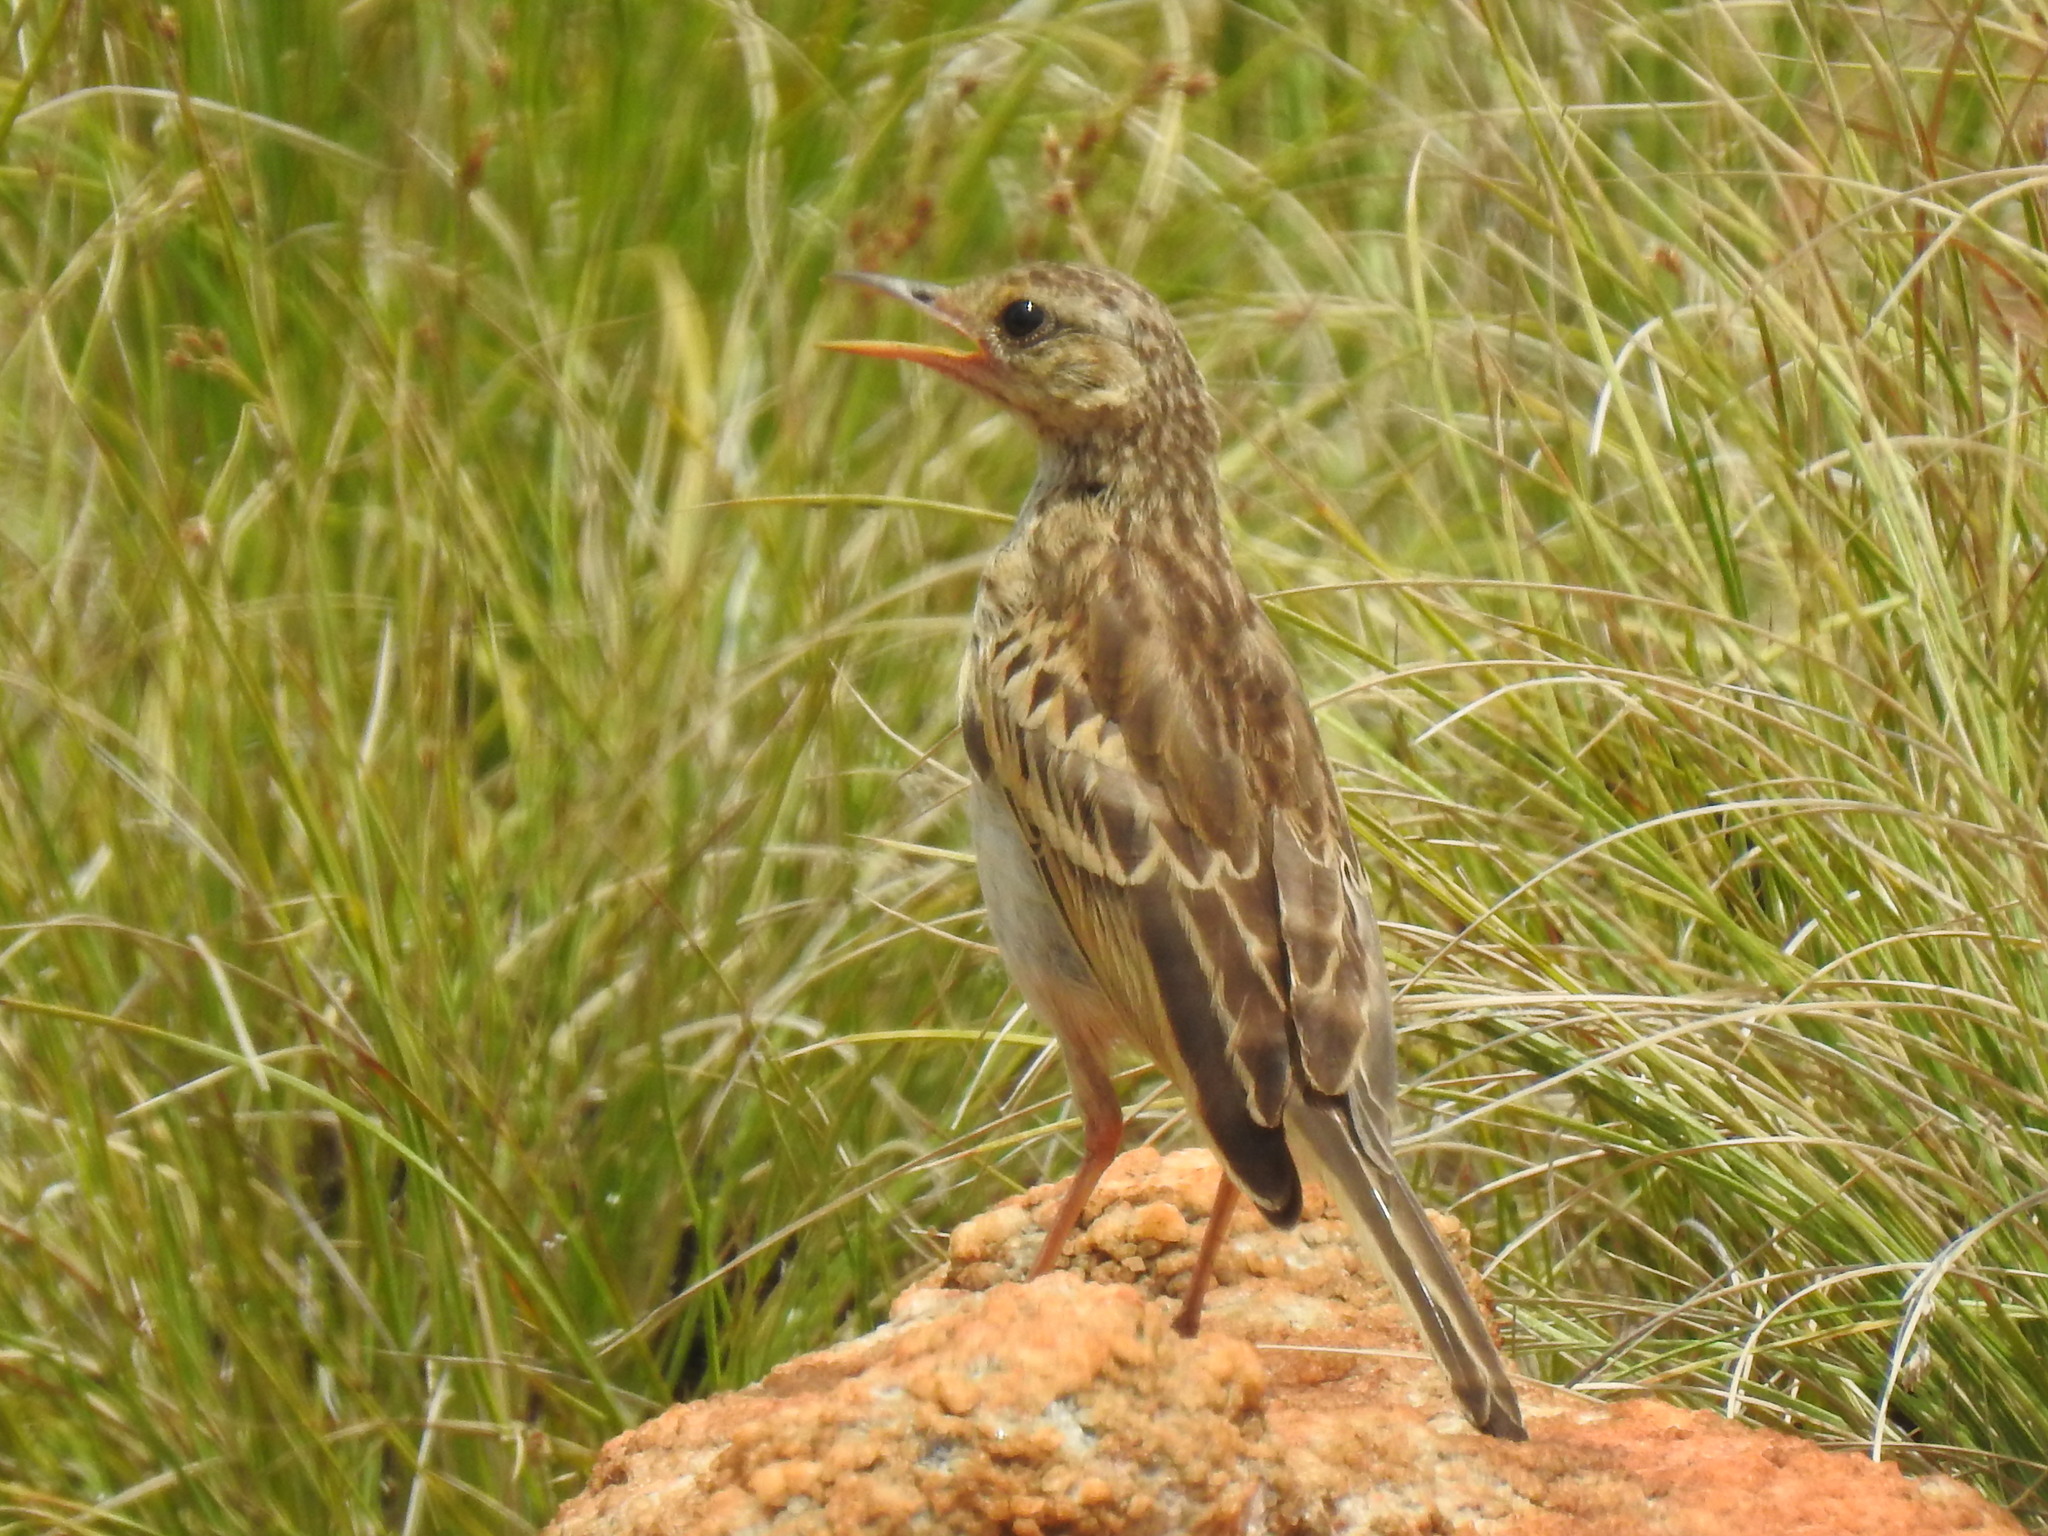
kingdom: Animalia
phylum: Chordata
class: Aves
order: Passeriformes
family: Motacillidae
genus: Anthus
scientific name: Anthus cinnamomeus
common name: African pipit
